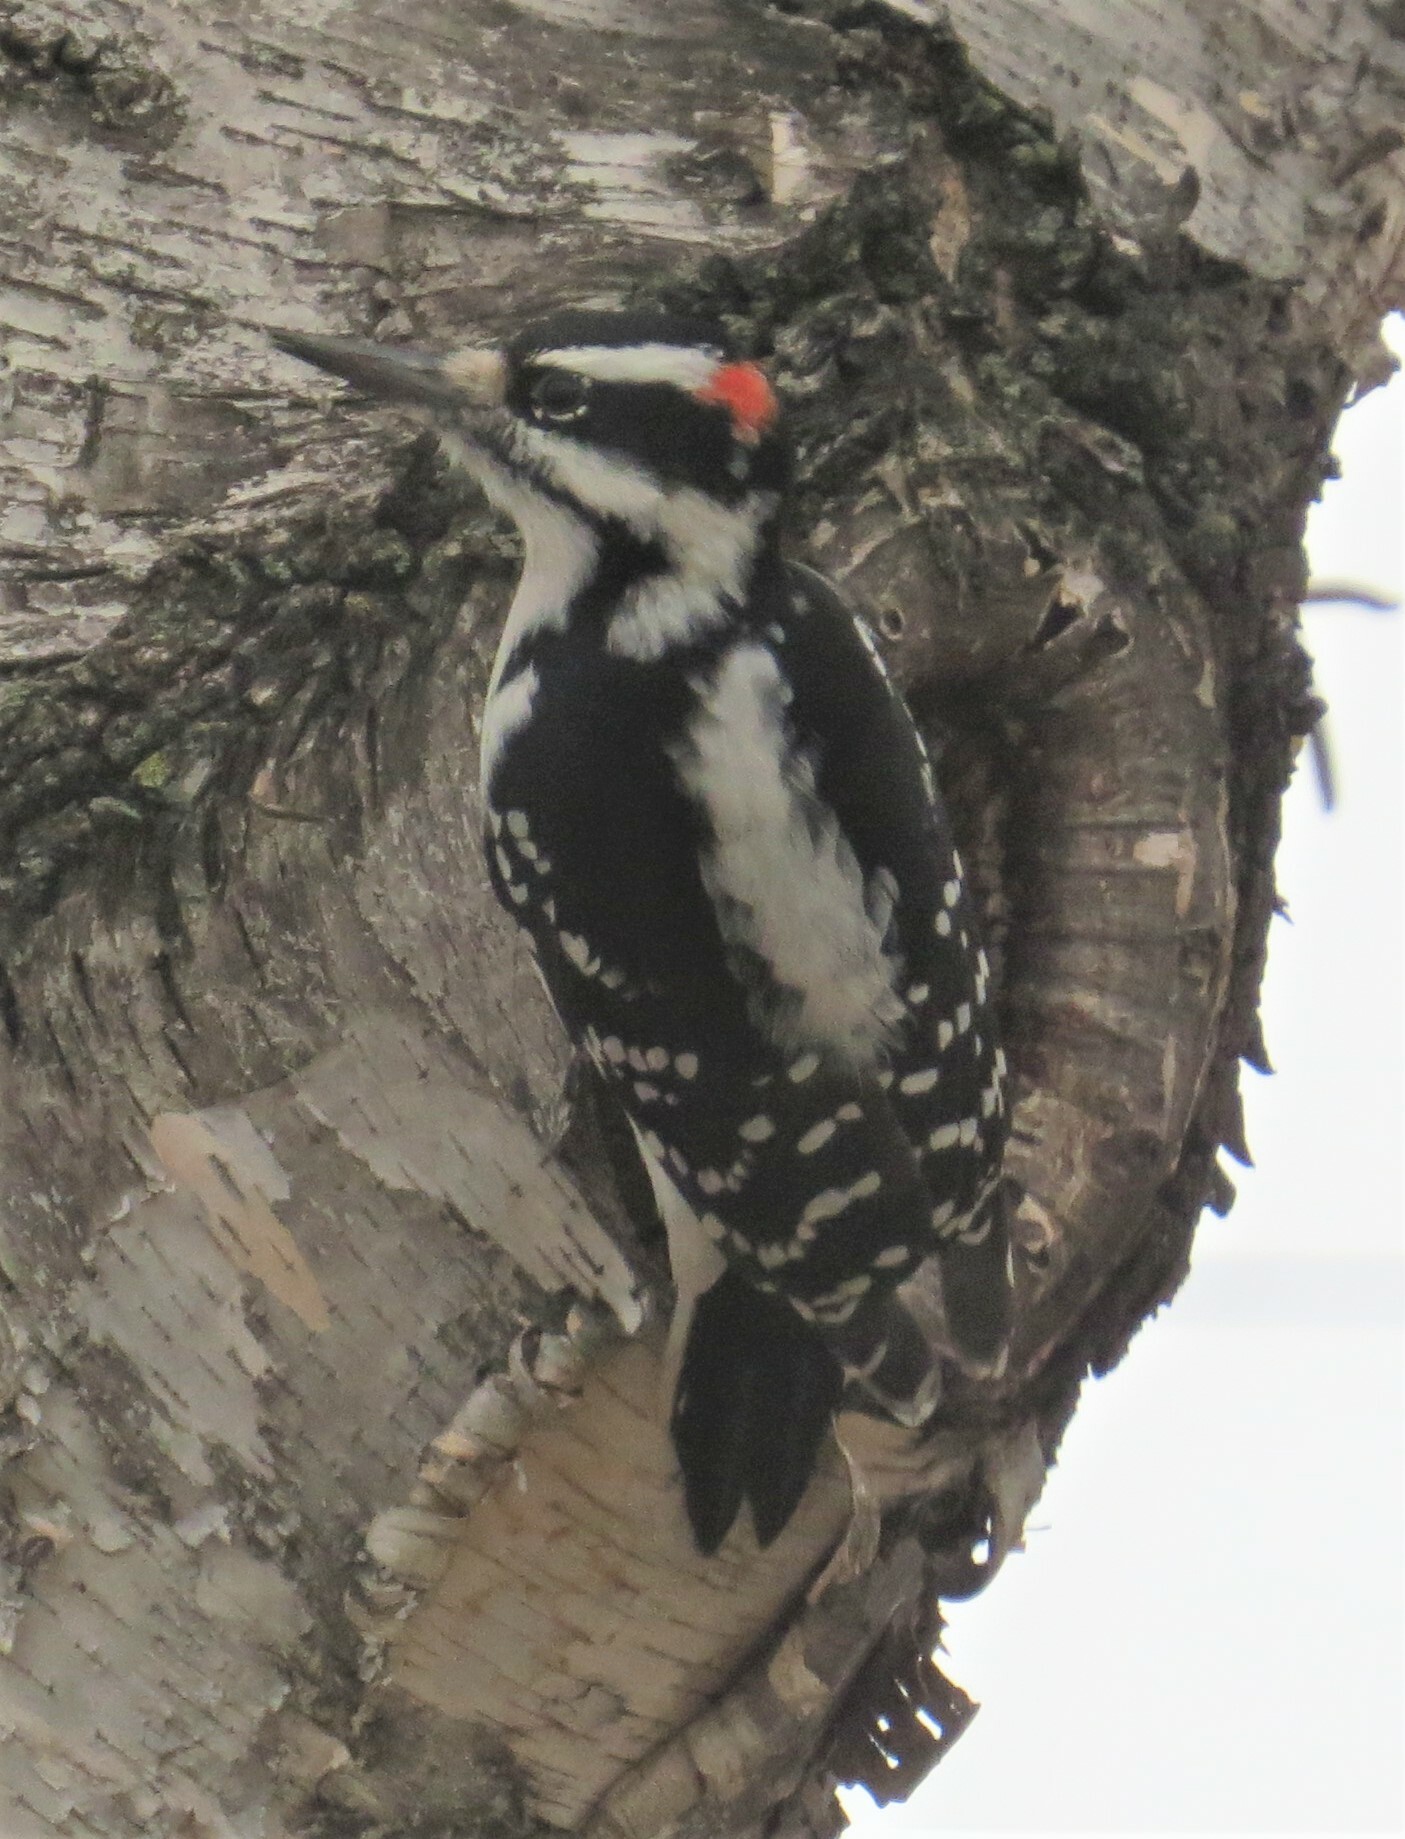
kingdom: Animalia
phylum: Chordata
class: Aves
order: Piciformes
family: Picidae
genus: Leuconotopicus
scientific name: Leuconotopicus villosus
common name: Hairy woodpecker
